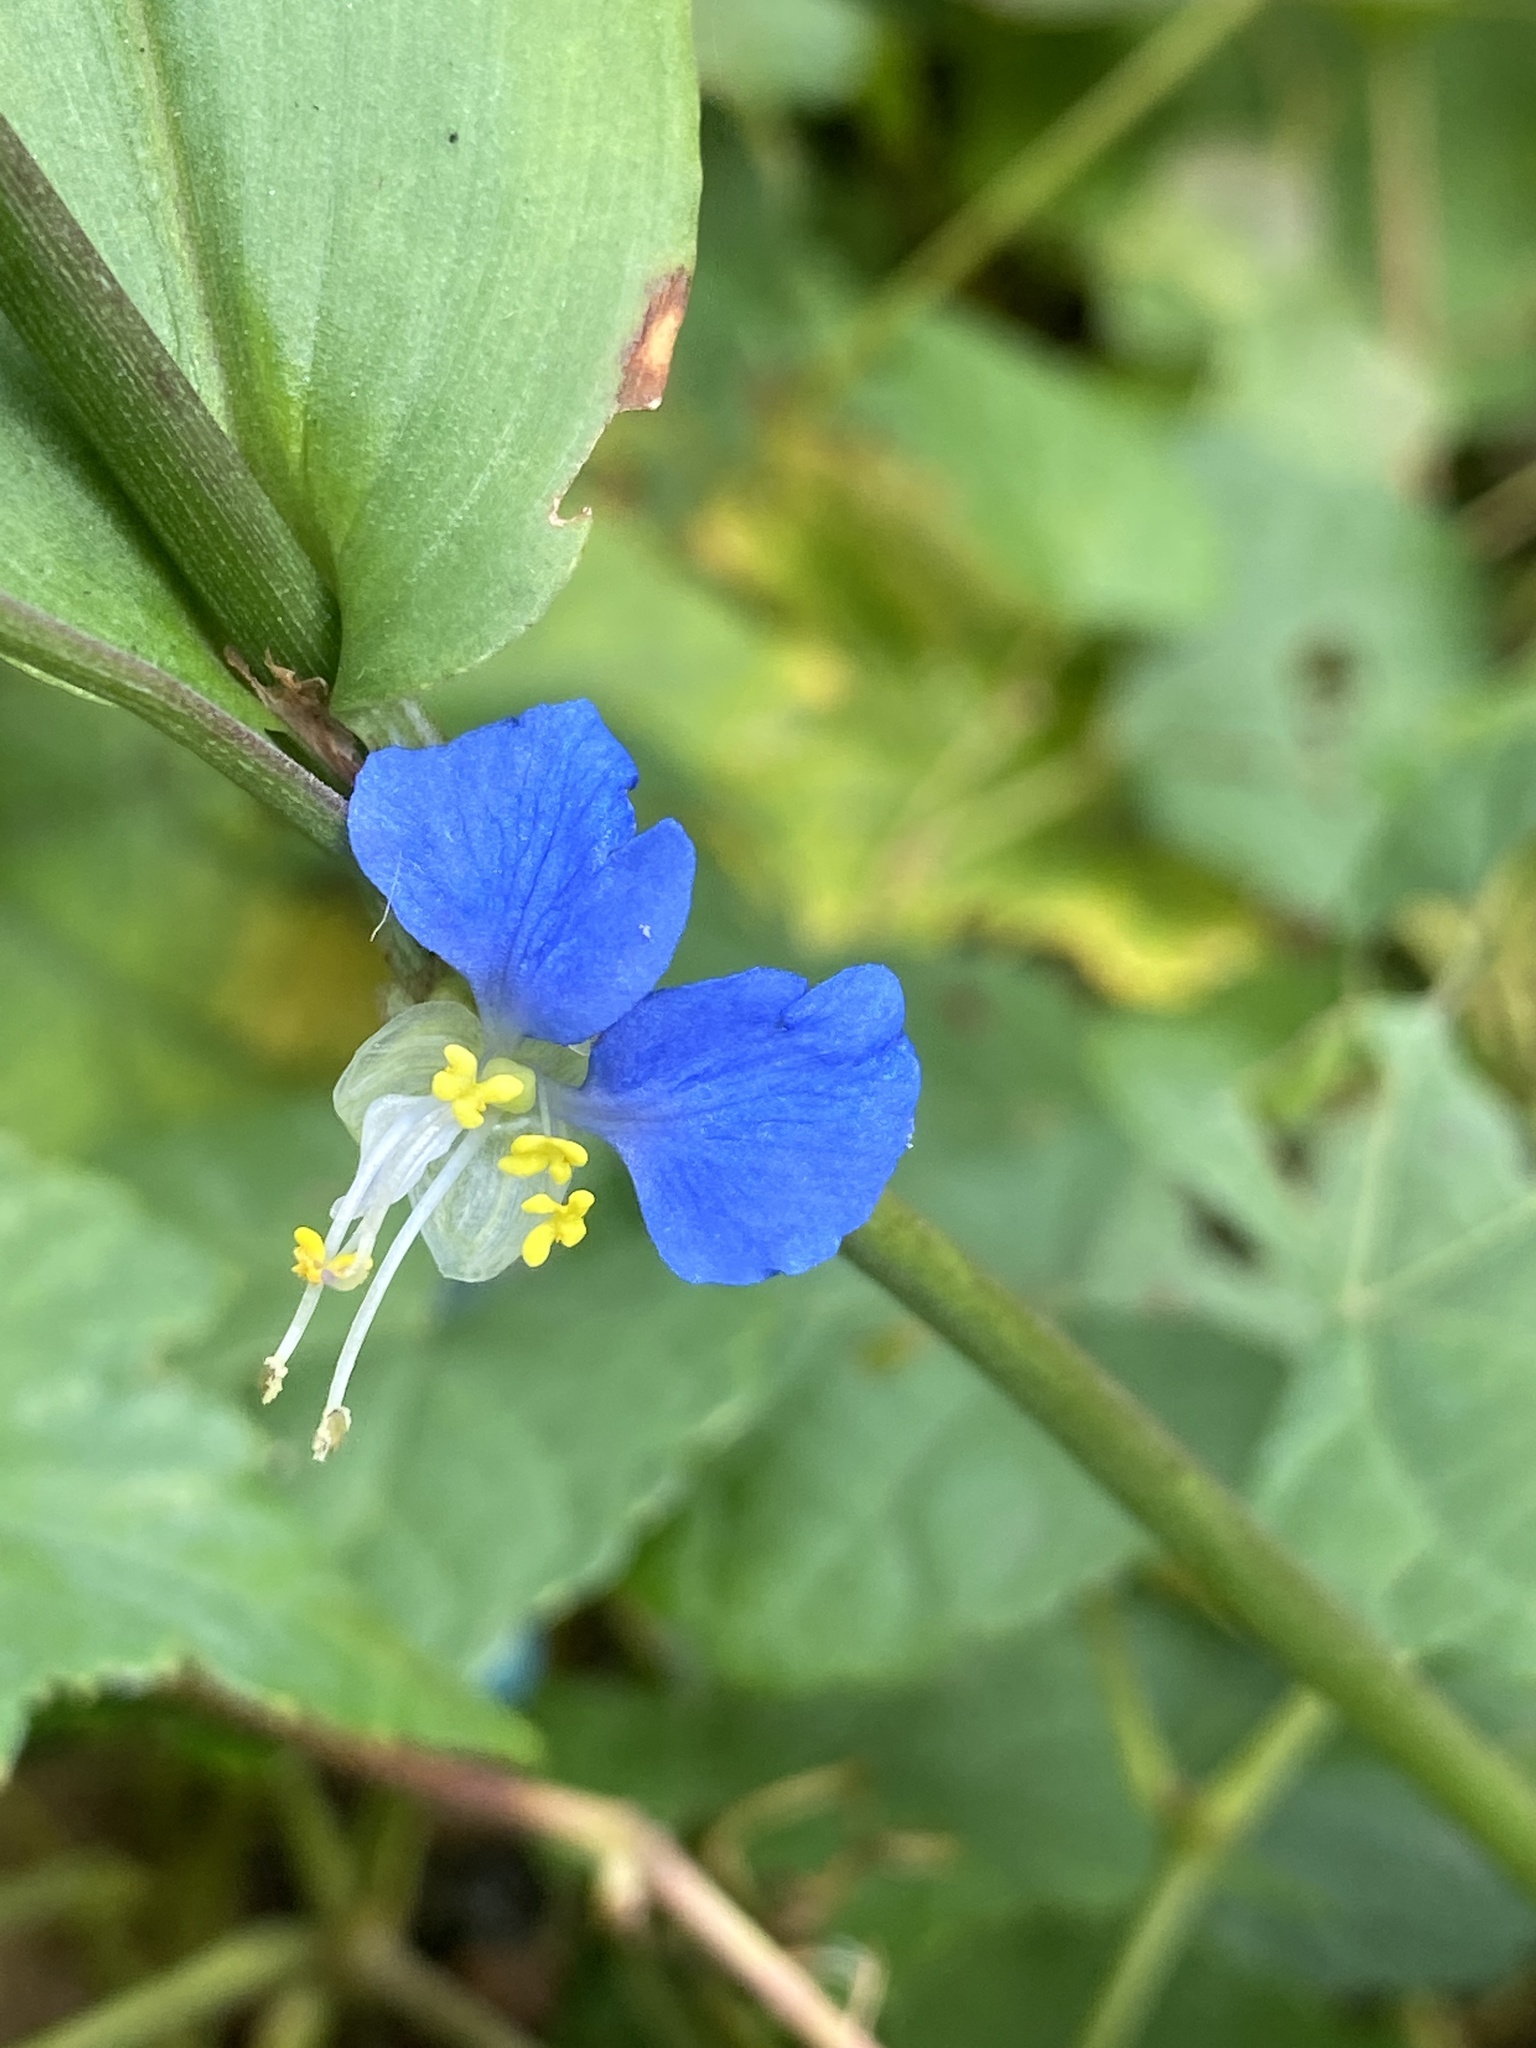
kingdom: Plantae
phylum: Tracheophyta
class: Liliopsida
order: Commelinales
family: Commelinaceae
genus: Commelina
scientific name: Commelina communis
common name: Asiatic dayflower
